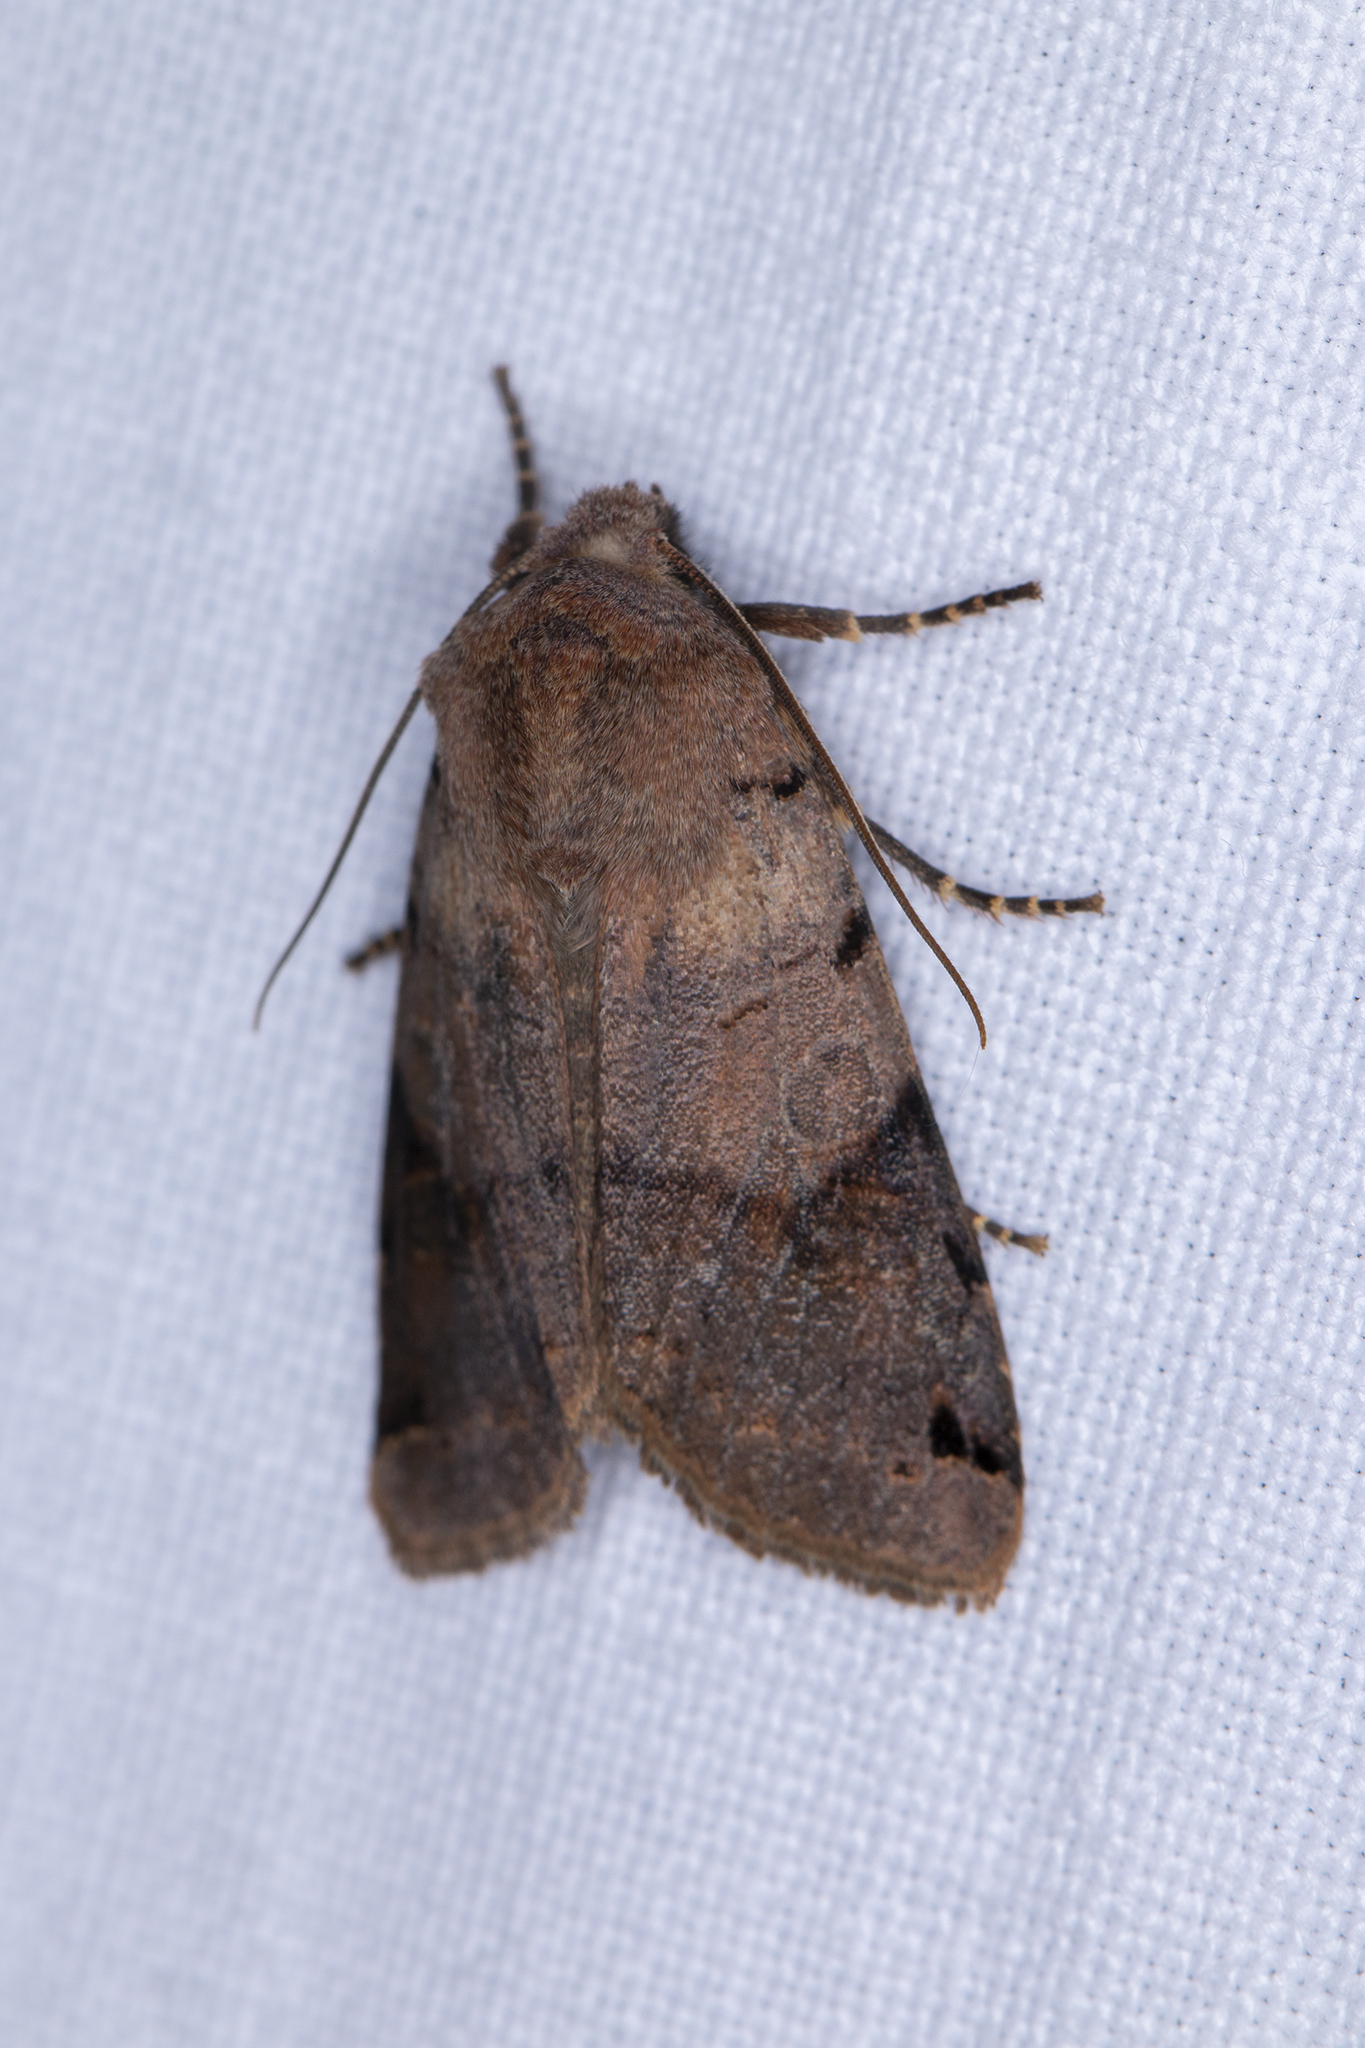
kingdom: Animalia
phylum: Arthropoda
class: Insecta
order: Lepidoptera
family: Noctuidae
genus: Agrochola
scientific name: Agrochola litura
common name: Brown-spot pinion
